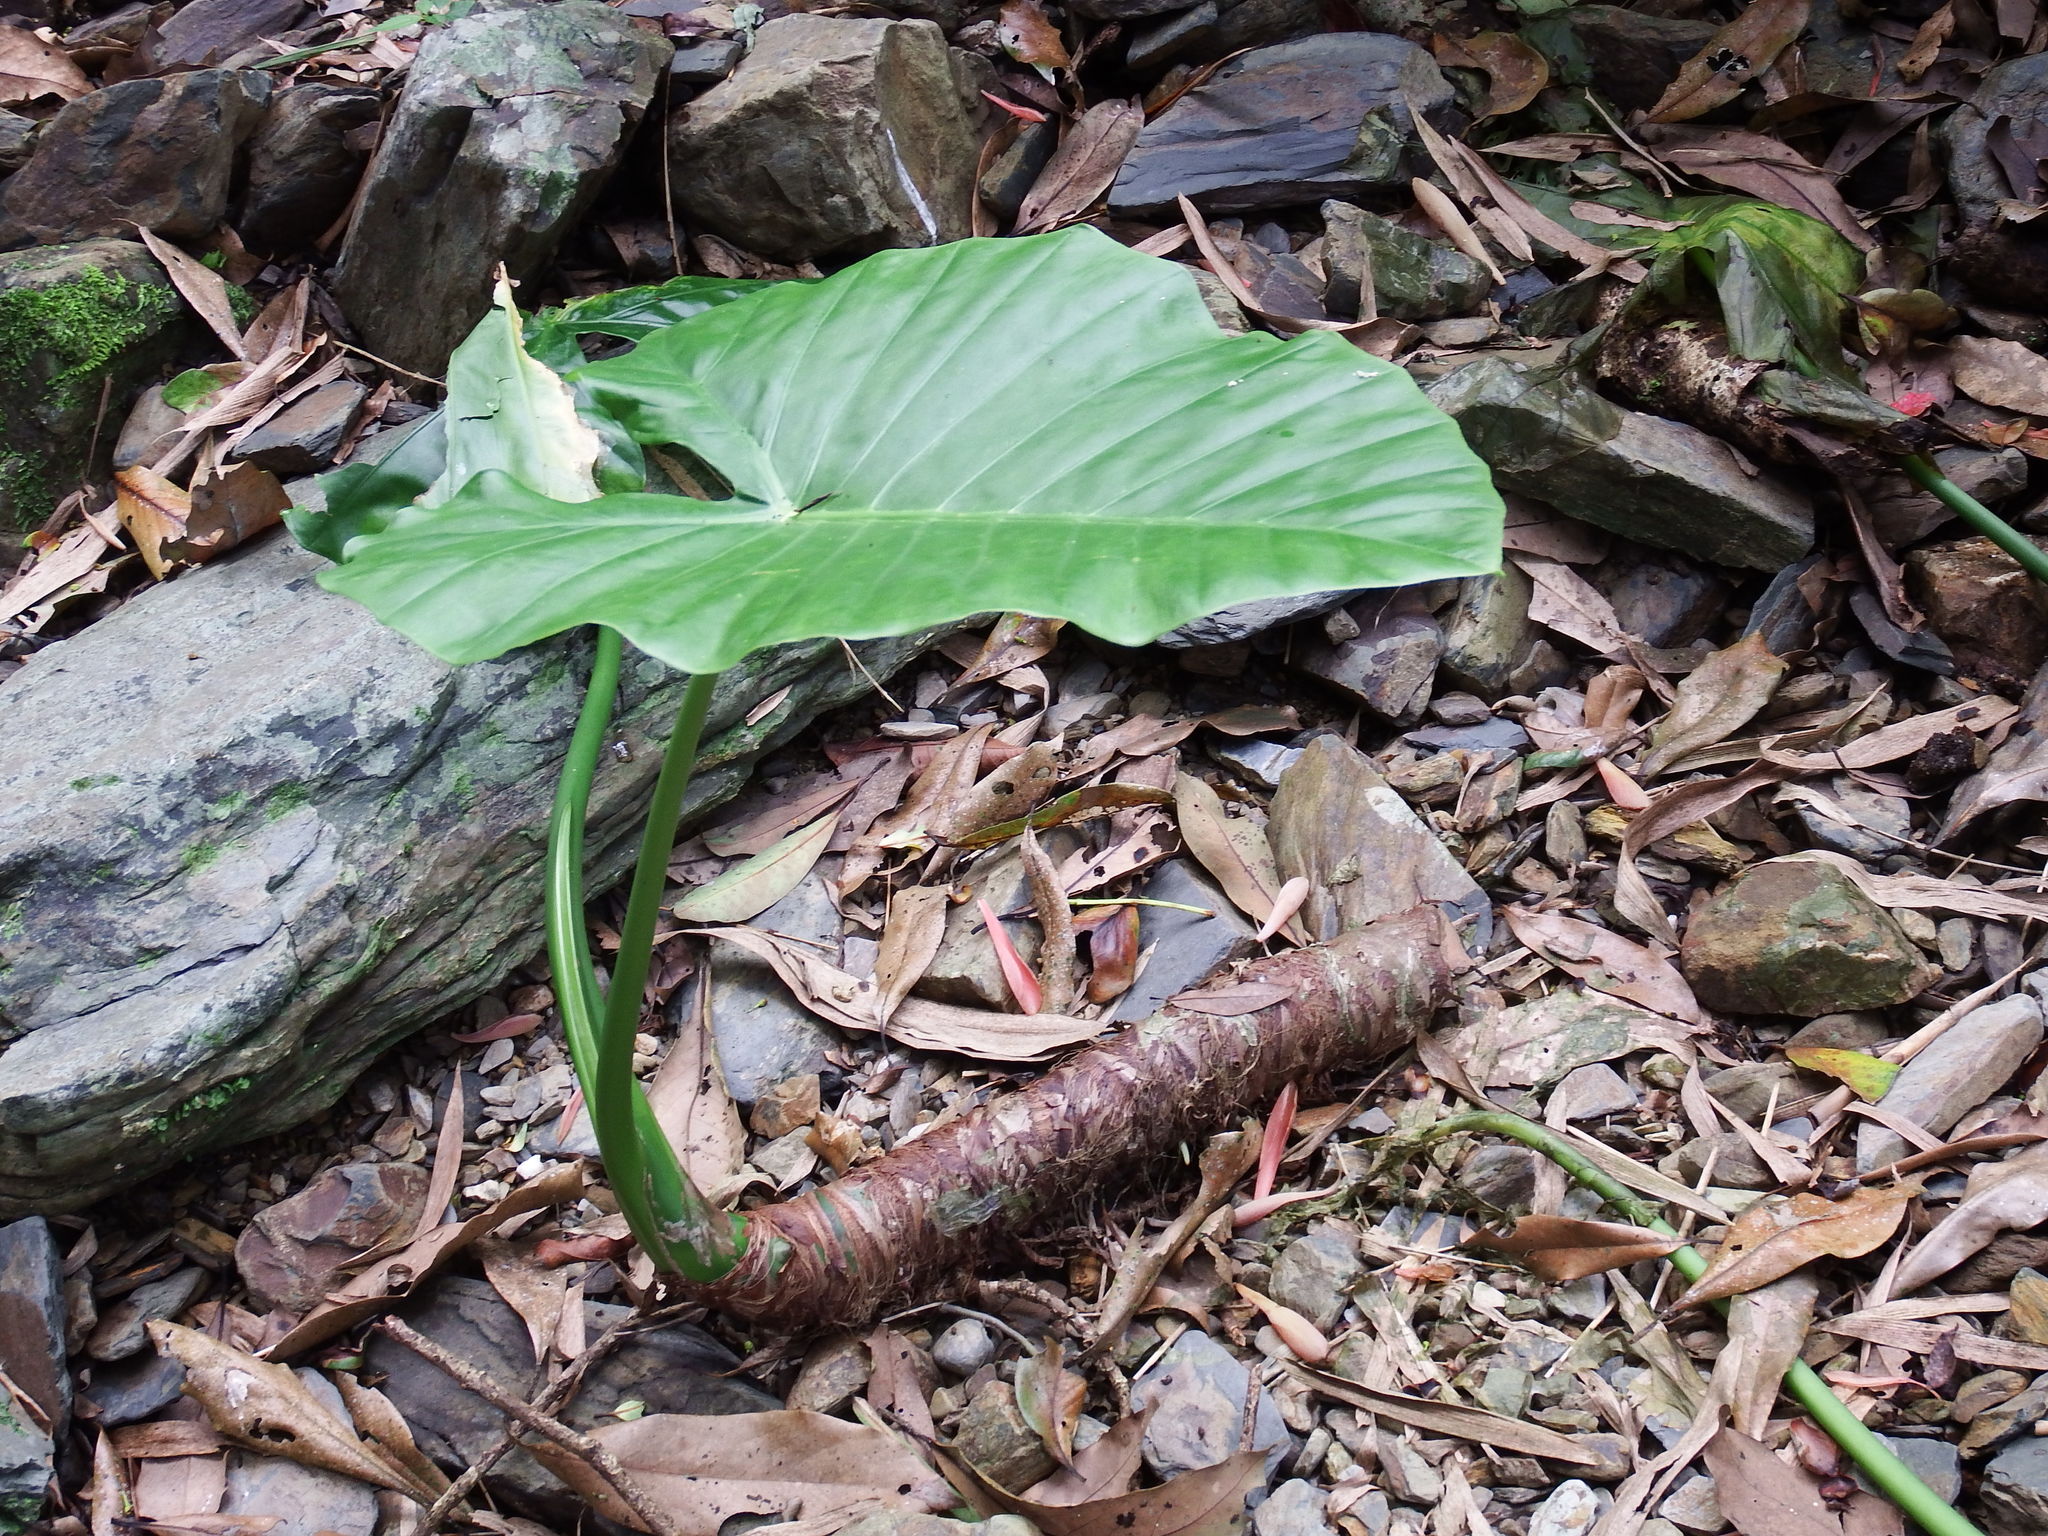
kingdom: Plantae
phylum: Tracheophyta
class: Liliopsida
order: Alismatales
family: Araceae
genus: Alocasia
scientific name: Alocasia odora
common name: Asian taro
